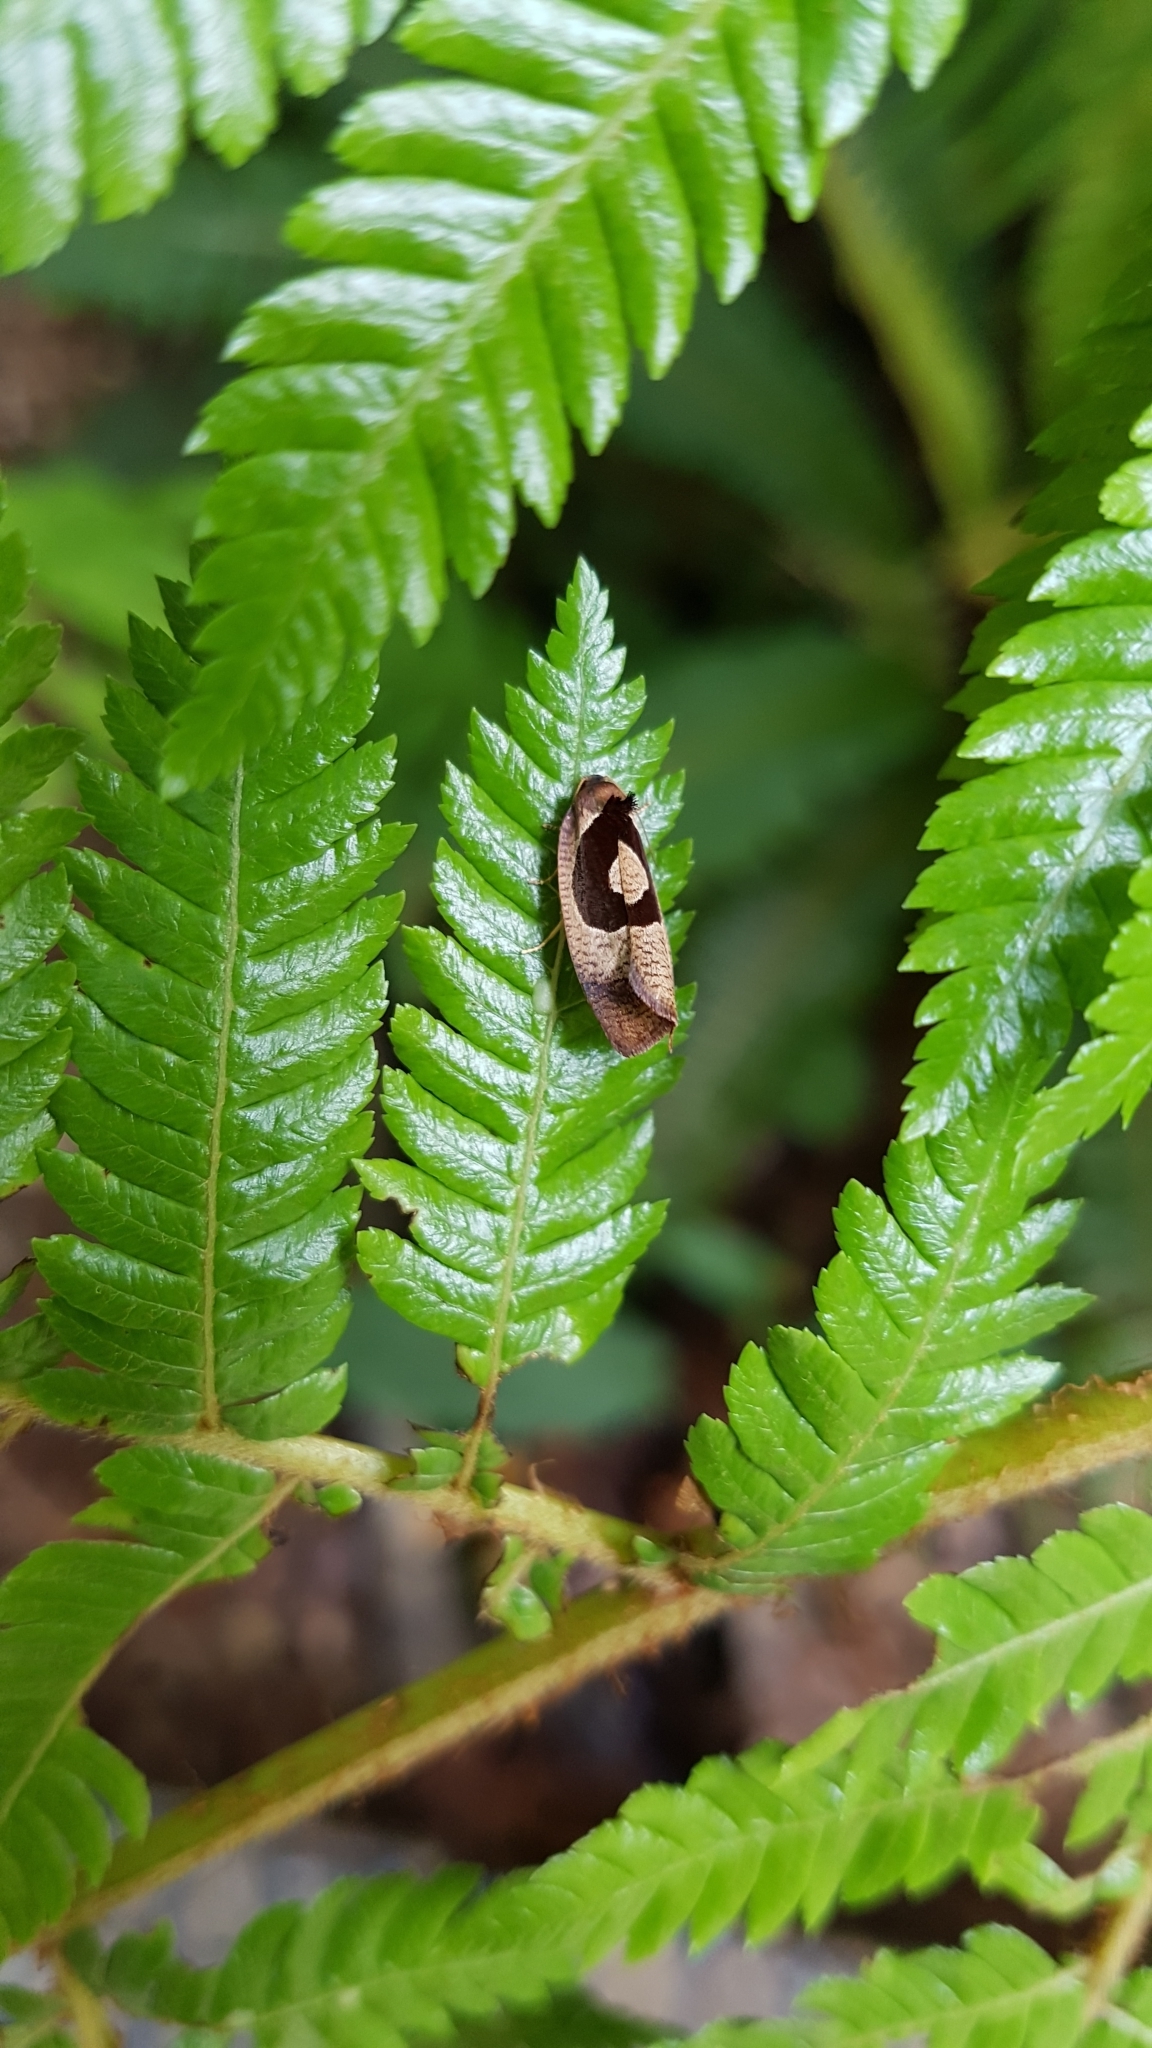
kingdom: Animalia
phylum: Arthropoda
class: Insecta
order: Lepidoptera
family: Tortricidae
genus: Ochetarcha
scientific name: Ochetarcha miraculosa
